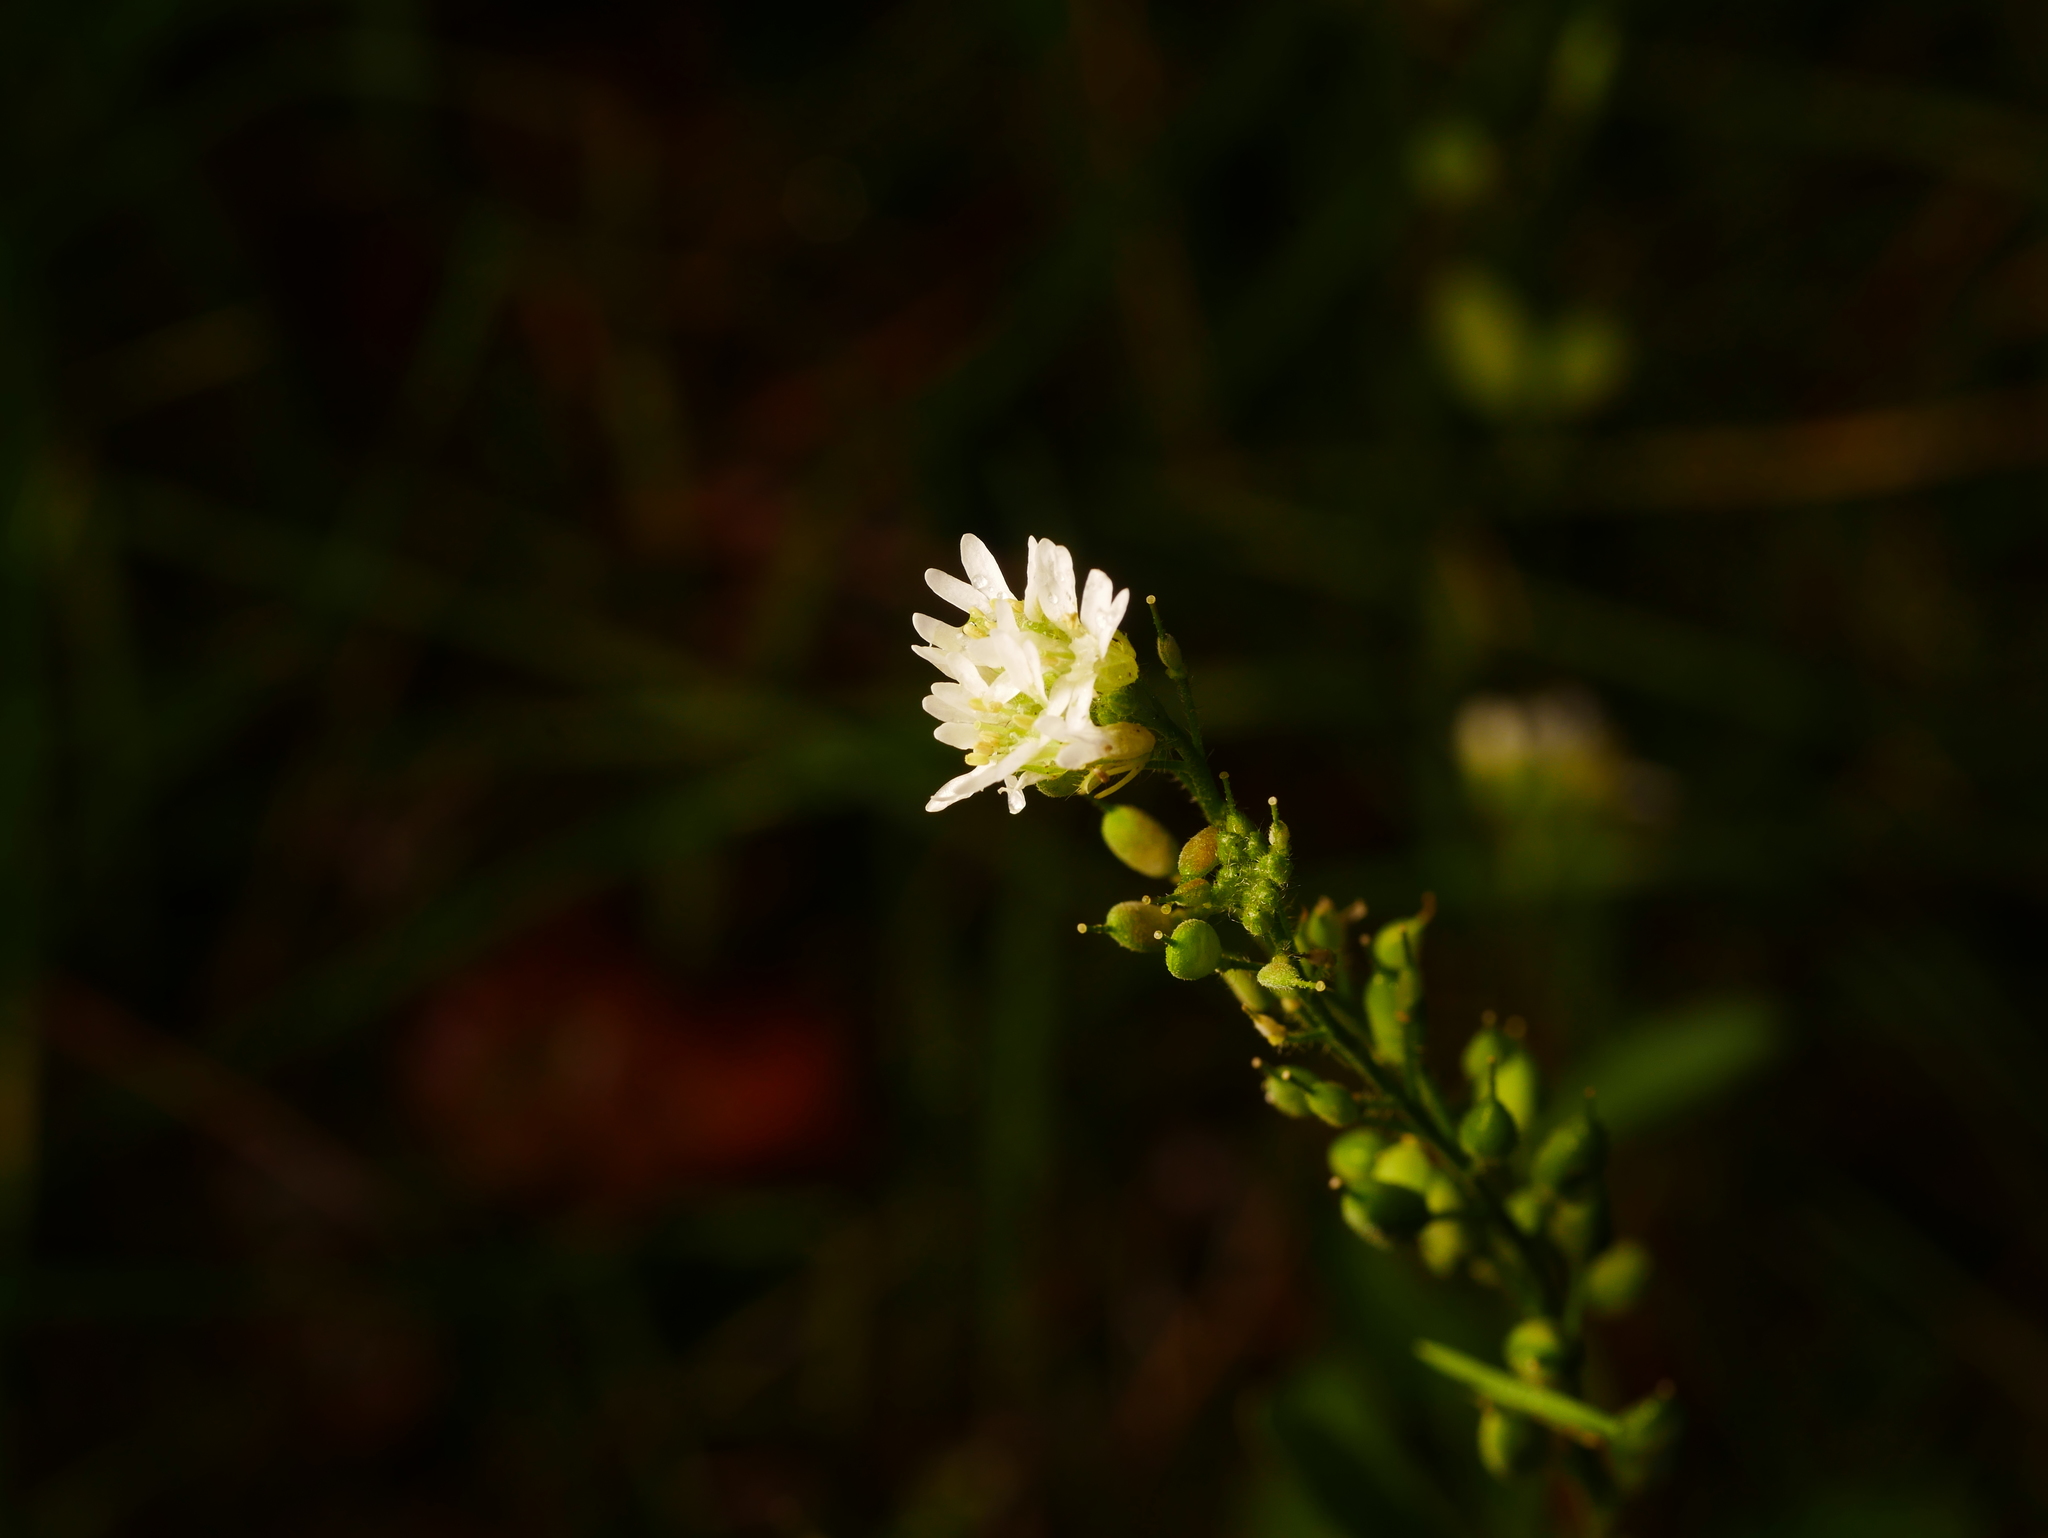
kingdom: Plantae
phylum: Tracheophyta
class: Magnoliopsida
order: Brassicales
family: Brassicaceae
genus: Berteroa
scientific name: Berteroa incana
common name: Hoary alison
